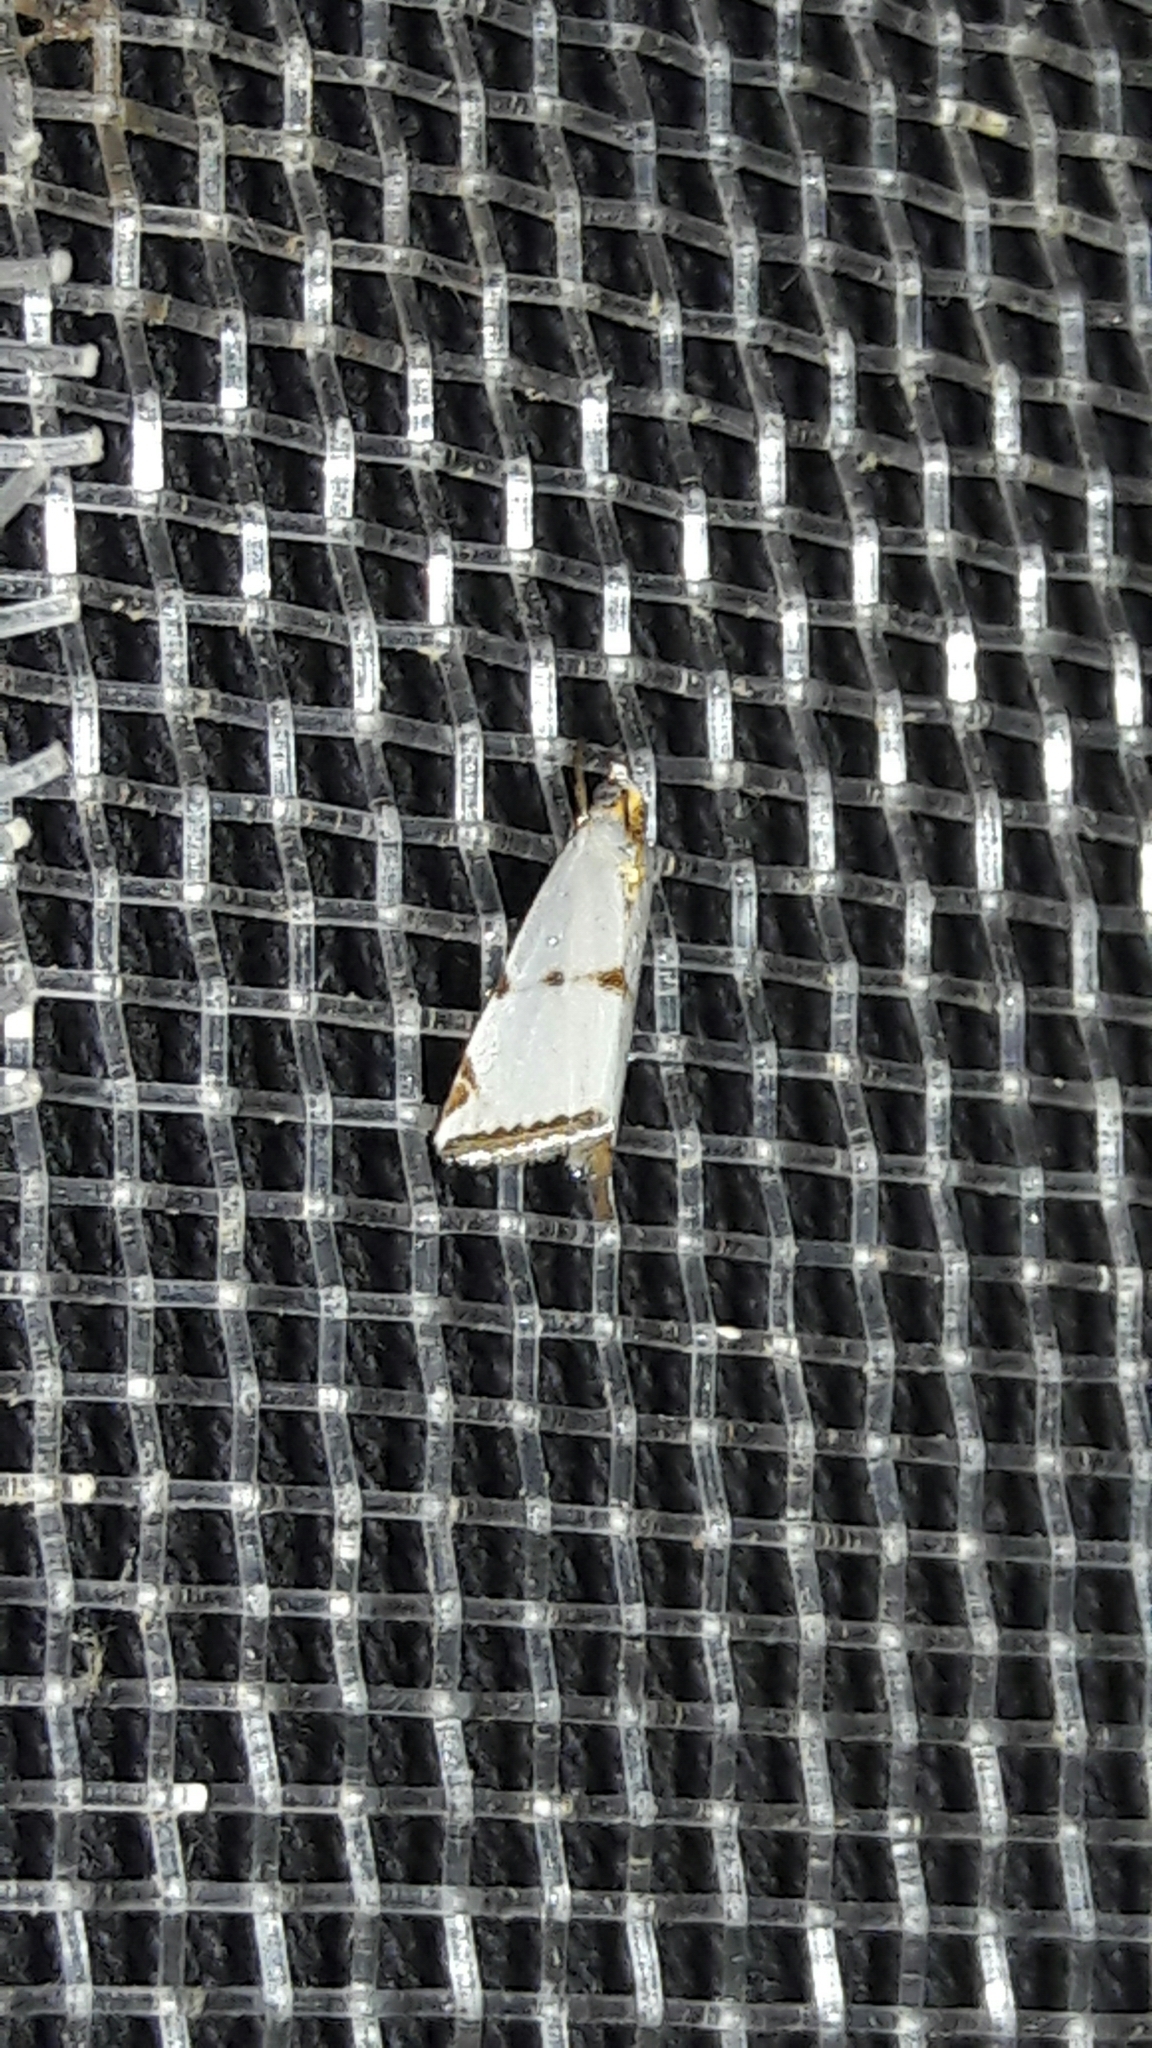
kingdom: Animalia
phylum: Arthropoda
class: Insecta
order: Lepidoptera
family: Crambidae
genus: Argyria
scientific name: Argyria lacteella
